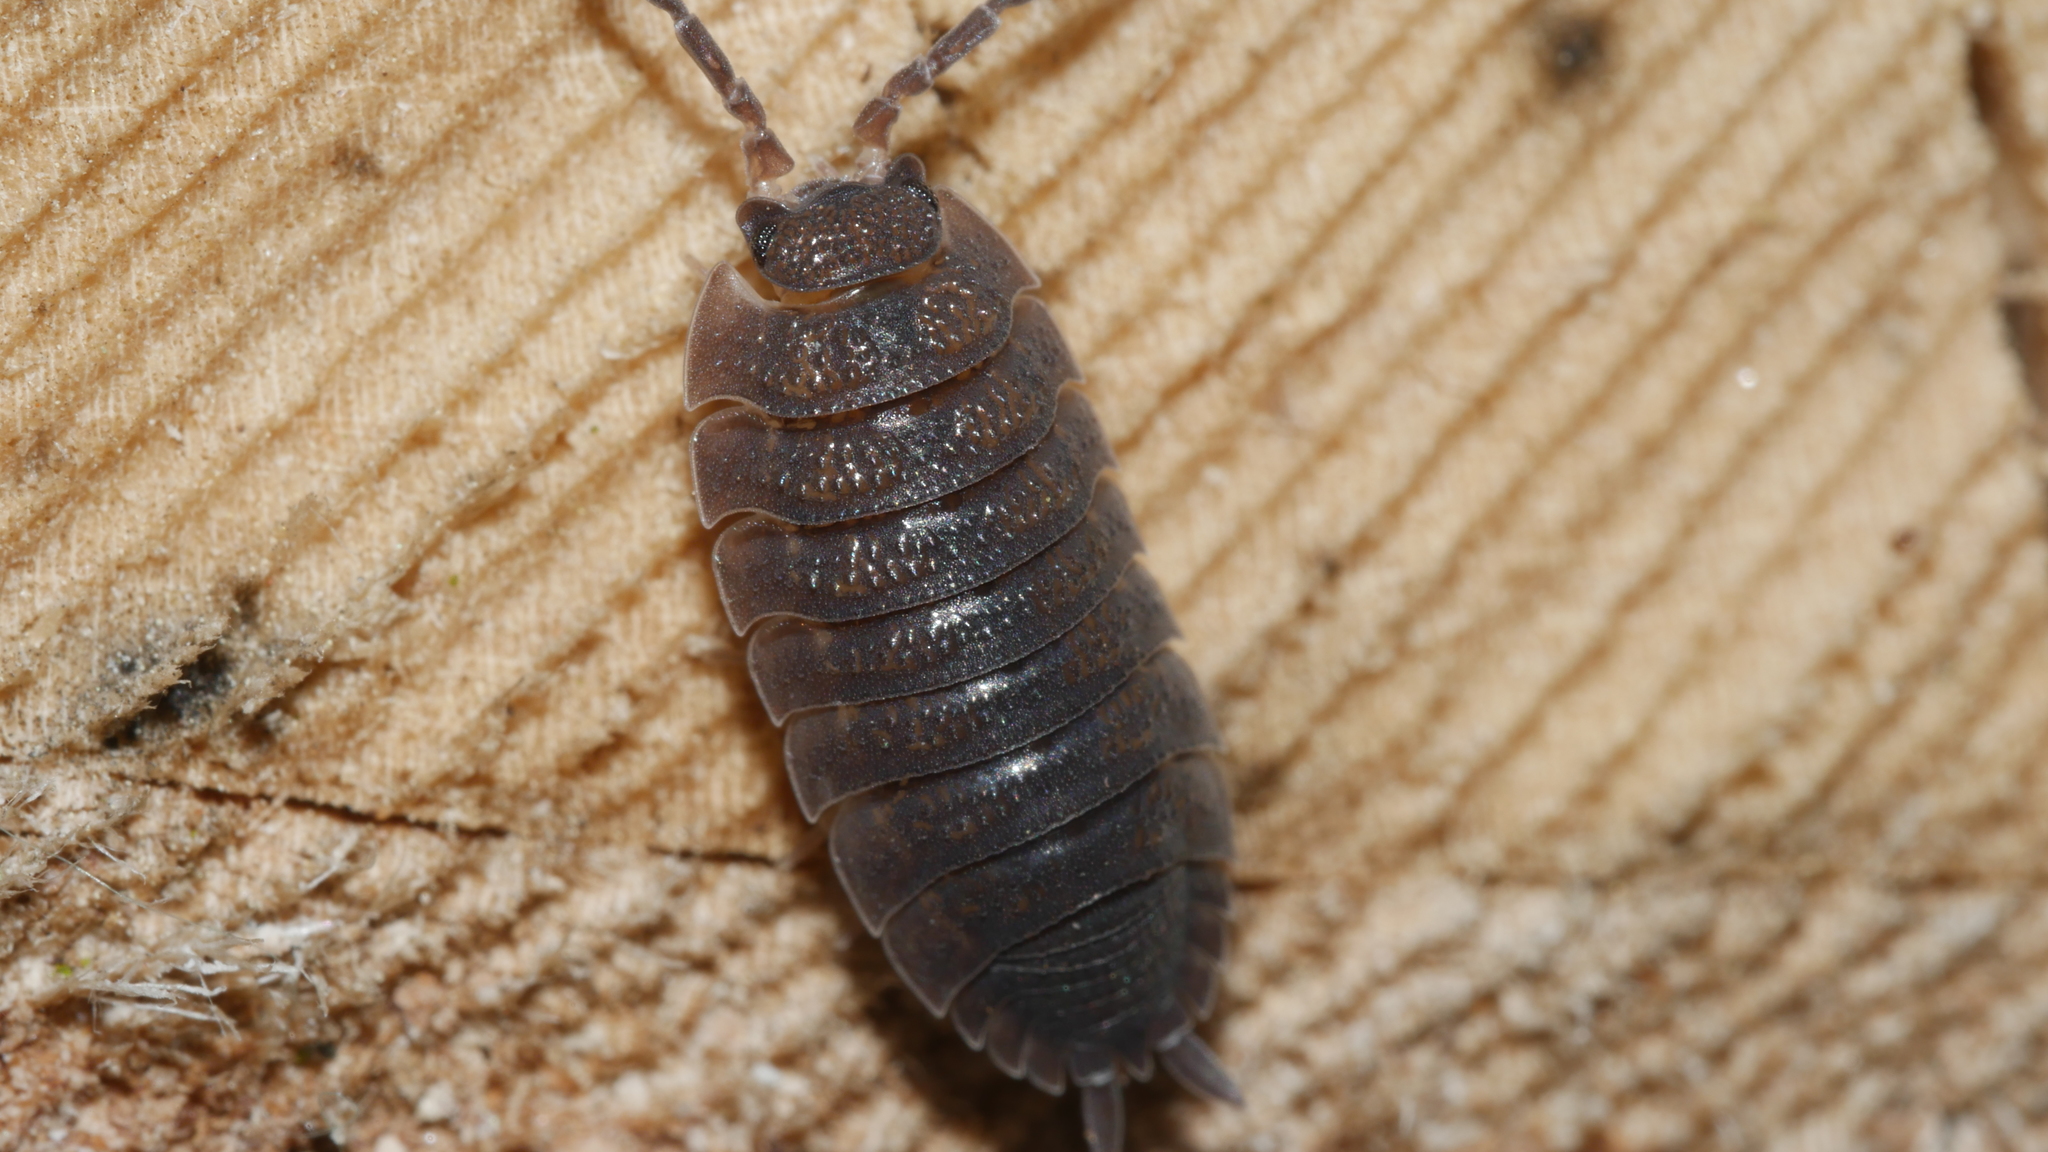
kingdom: Animalia
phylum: Arthropoda
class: Malacostraca
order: Isopoda
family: Porcellionidae
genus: Porcellio
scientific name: Porcellio scaber
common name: Common rough woodlouse
